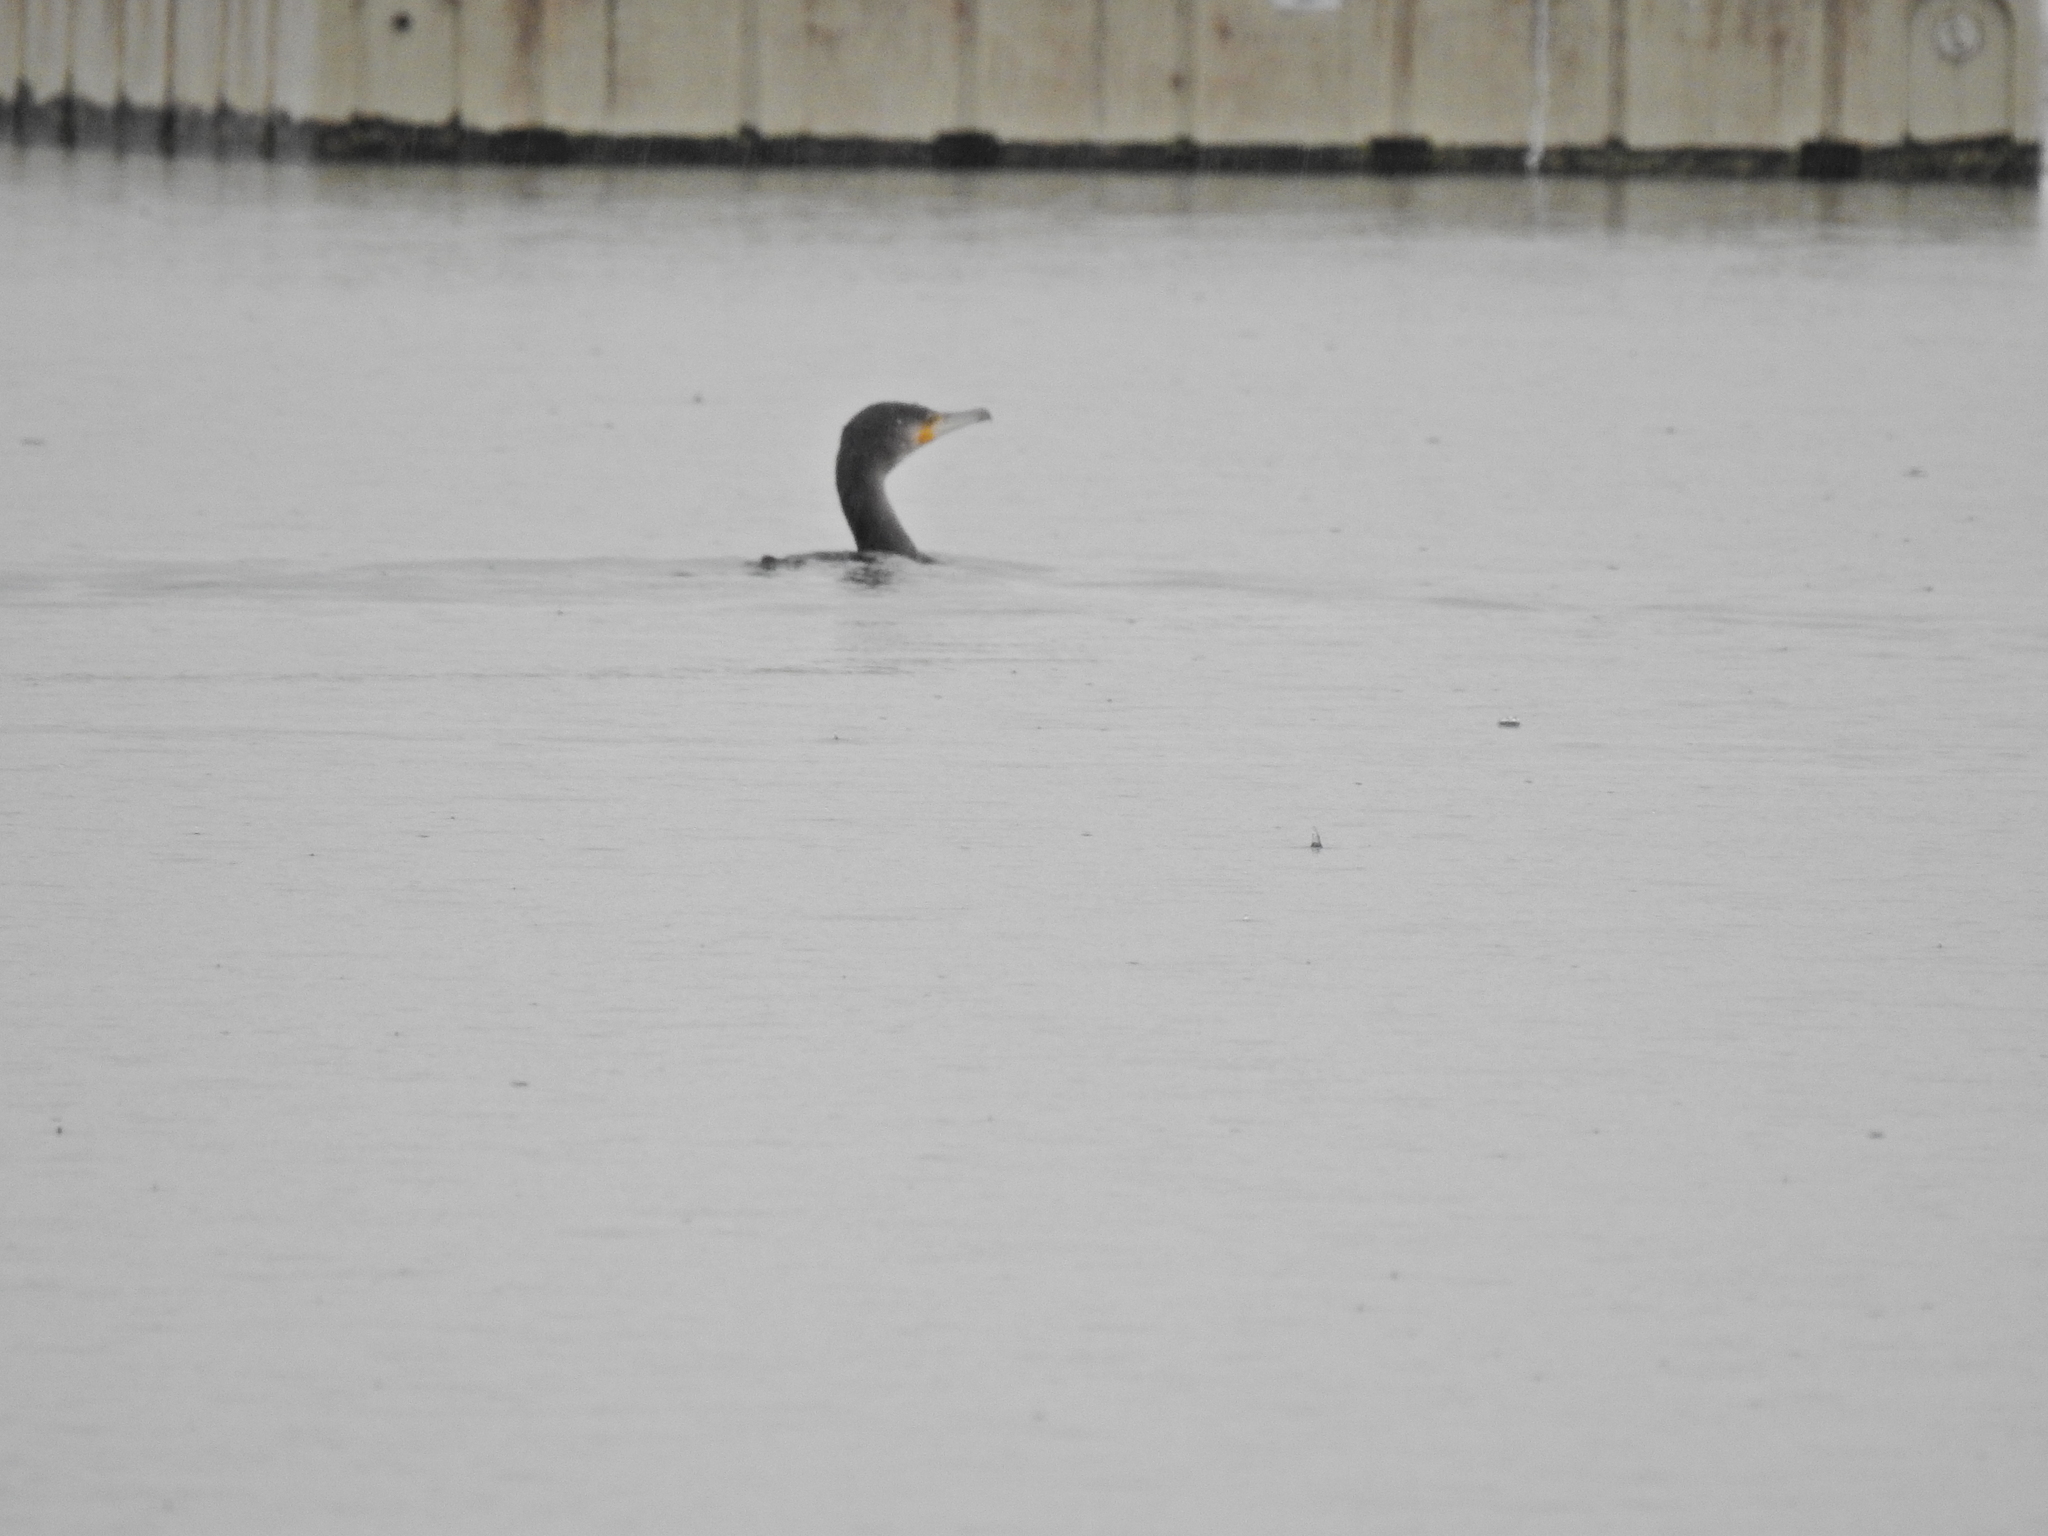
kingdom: Animalia
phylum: Chordata
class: Aves
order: Suliformes
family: Phalacrocoracidae
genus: Phalacrocorax
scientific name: Phalacrocorax carbo
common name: Great cormorant
